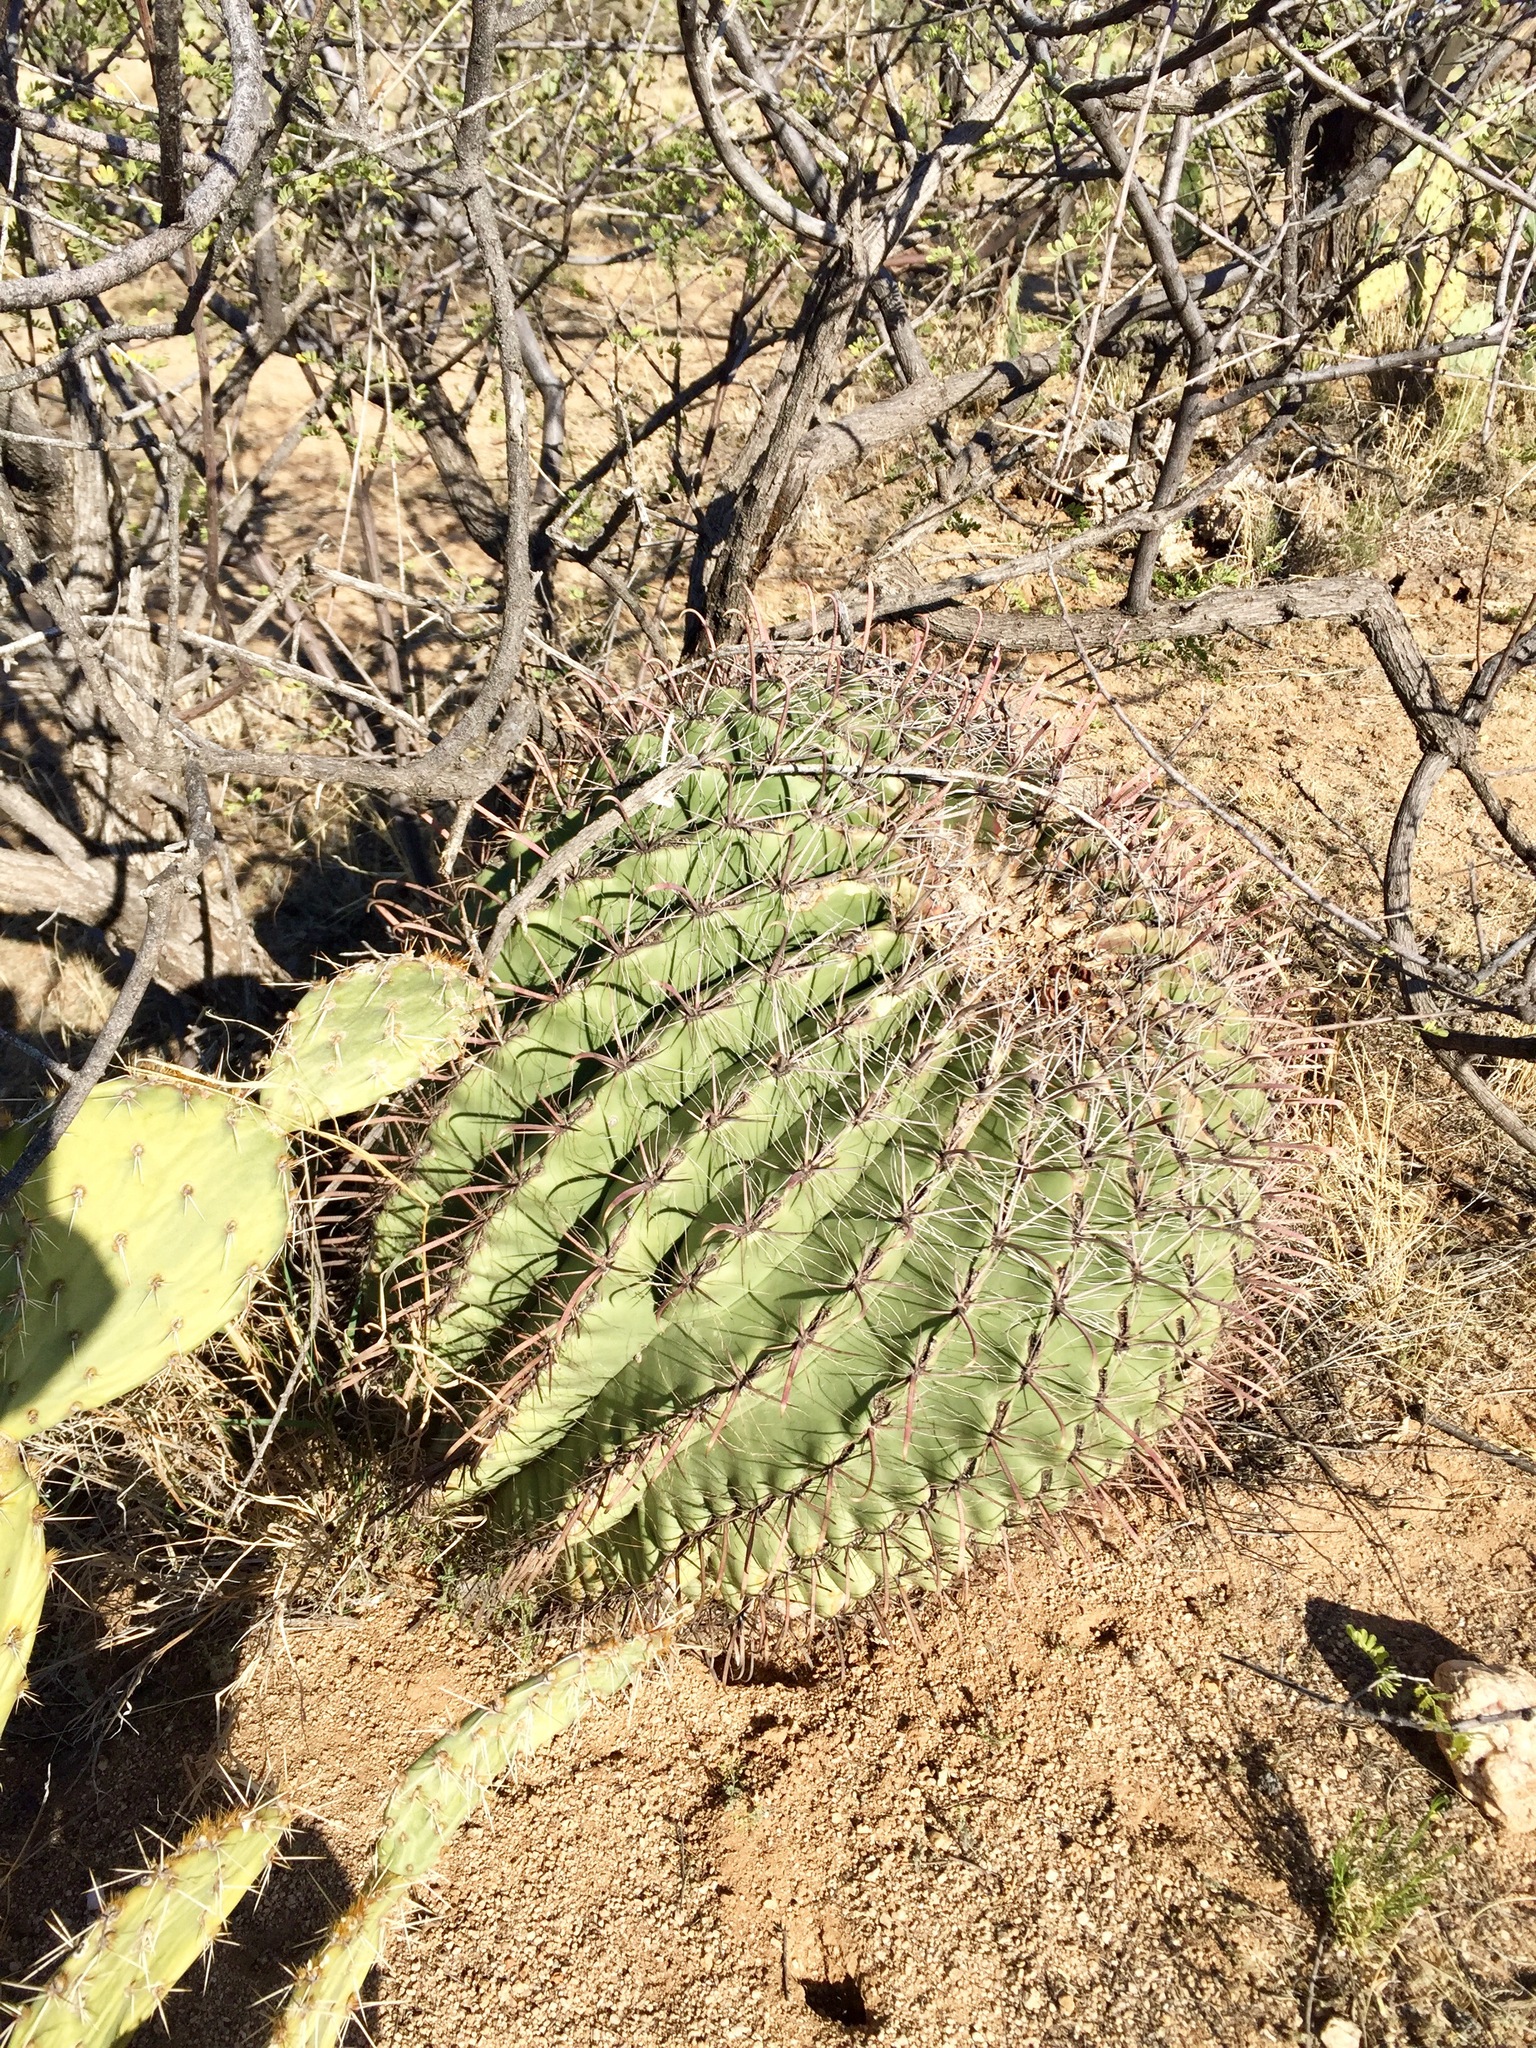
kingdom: Plantae
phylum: Tracheophyta
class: Magnoliopsida
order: Caryophyllales
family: Cactaceae
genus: Ferocactus
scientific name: Ferocactus wislizeni
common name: Candy barrel cactus
